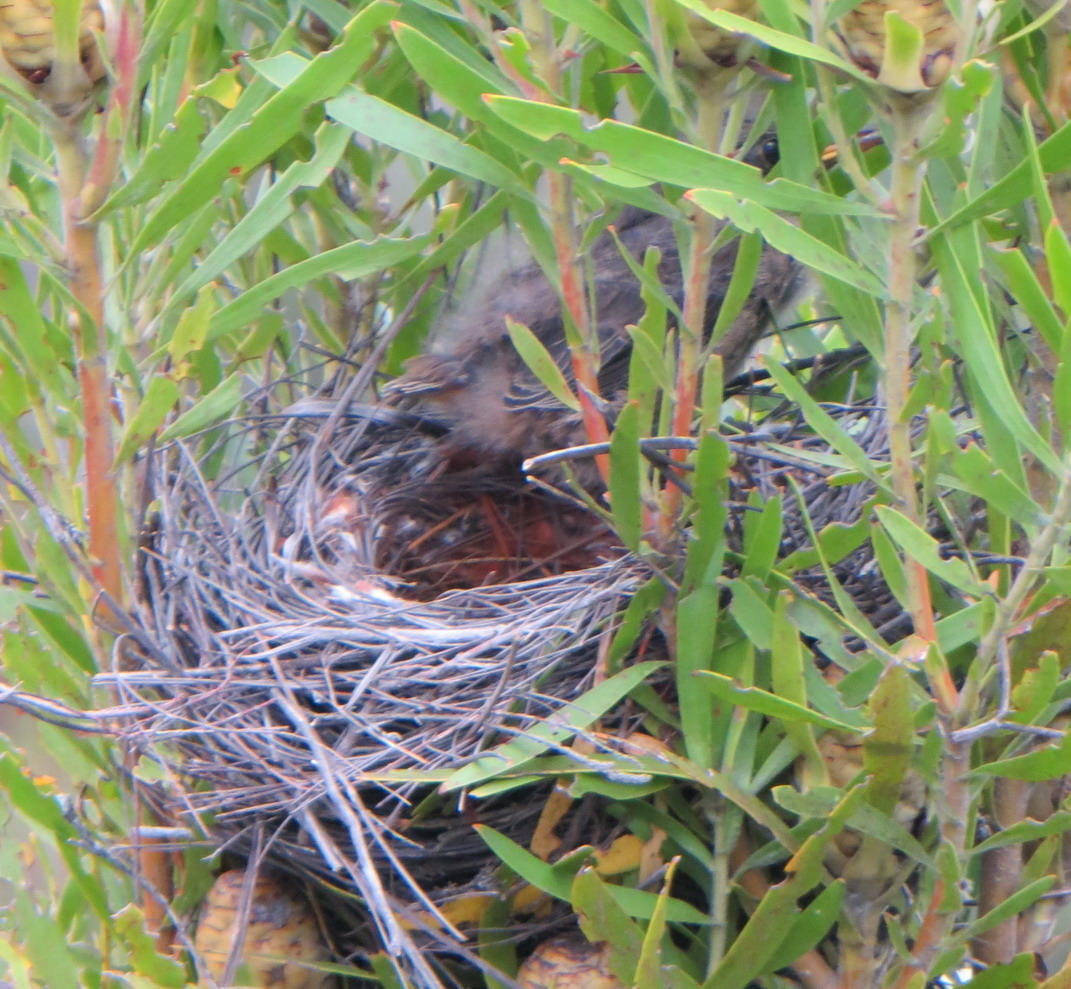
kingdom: Animalia
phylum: Chordata
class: Aves
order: Passeriformes
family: Promeropidae
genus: Promerops
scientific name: Promerops cafer
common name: Cape sugarbird
